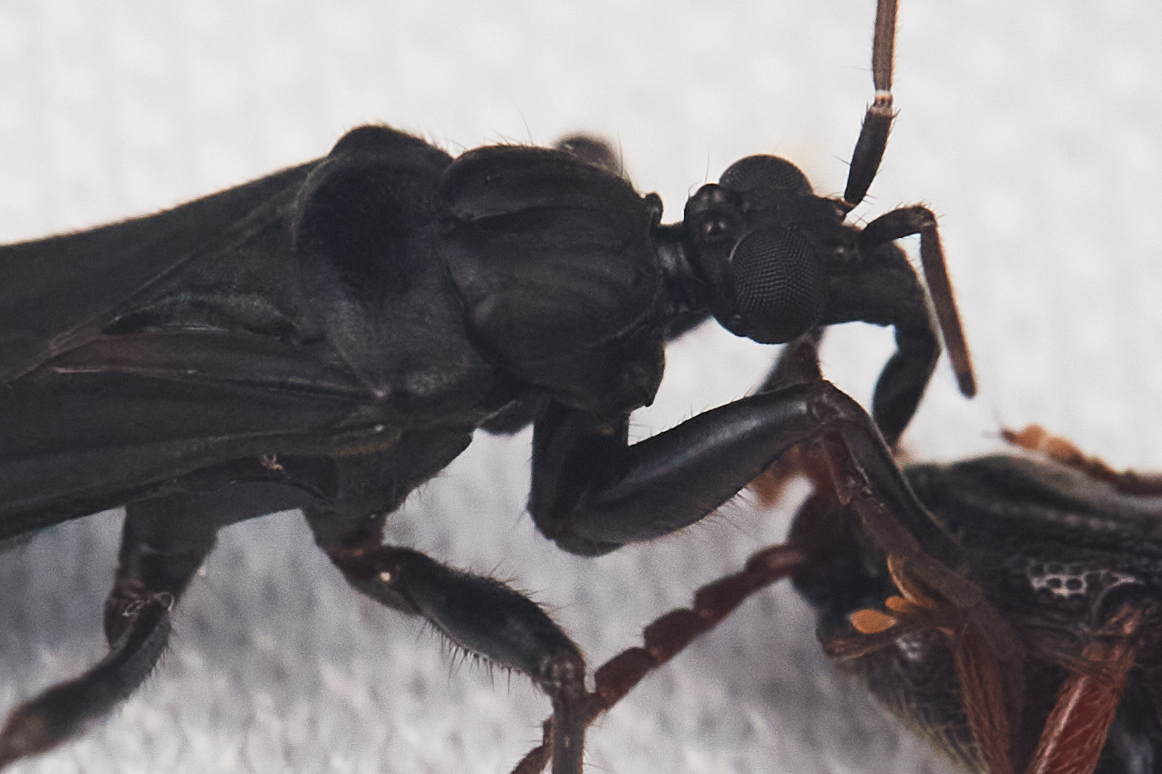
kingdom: Animalia
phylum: Arthropoda
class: Insecta
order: Hemiptera
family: Reduviidae
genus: Melanolestes
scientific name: Melanolestes morio
